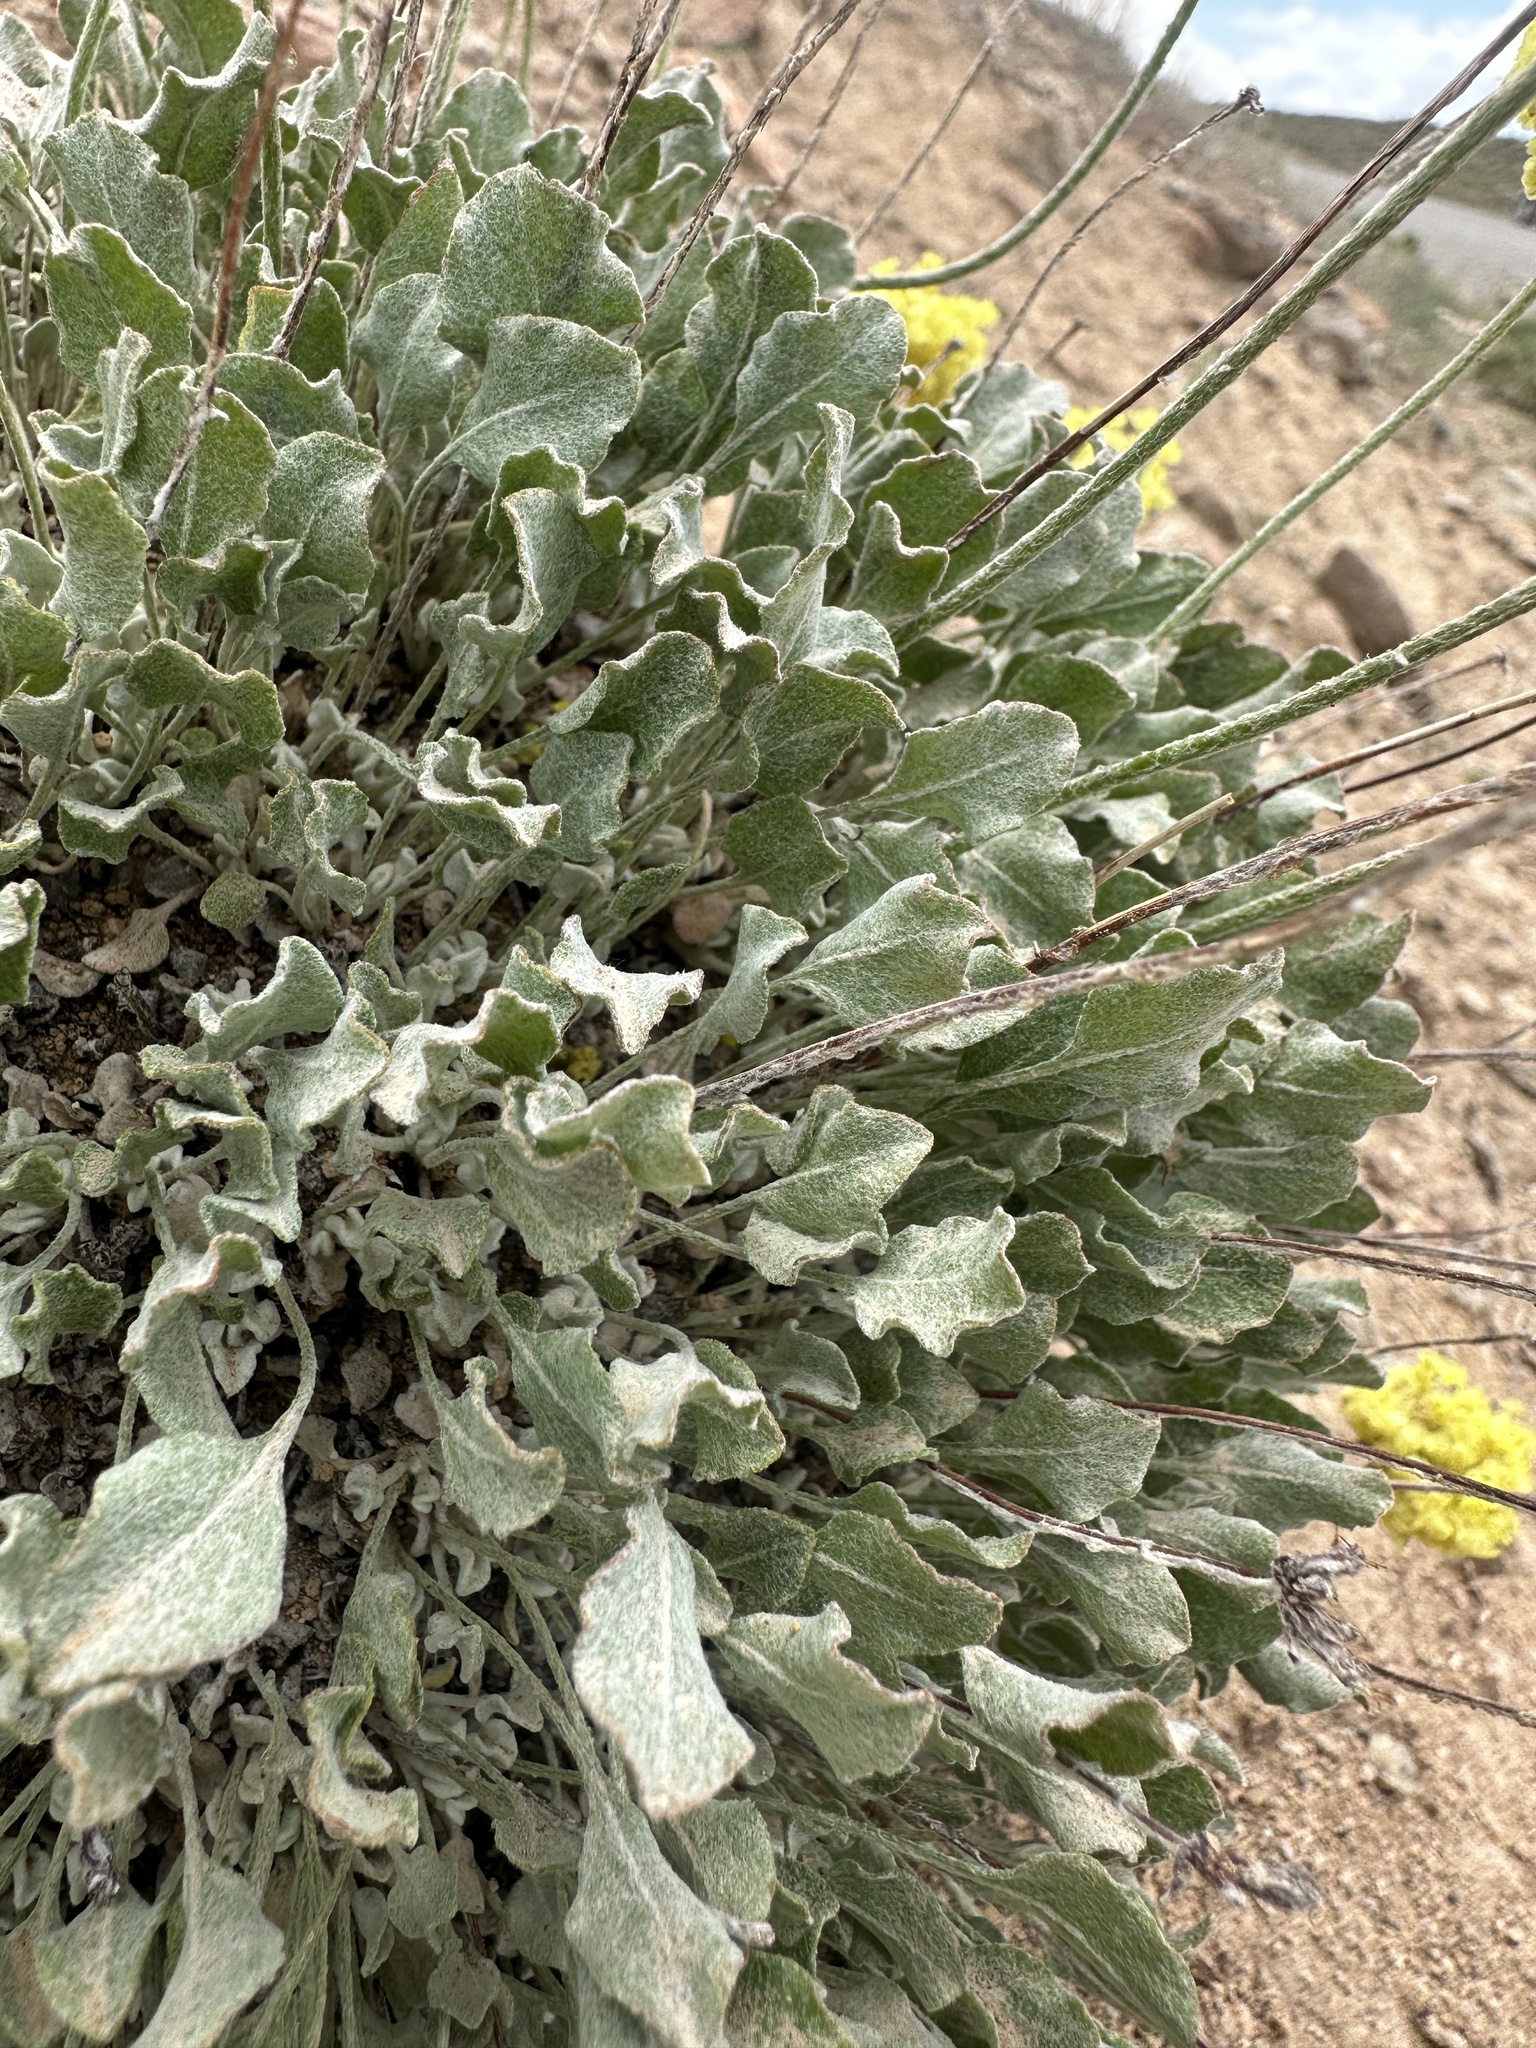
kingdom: Plantae
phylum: Tracheophyta
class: Magnoliopsida
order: Caryophyllales
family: Polygonaceae
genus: Eriogonum
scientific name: Eriogonum ovalifolium
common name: Cushion buckwheat
